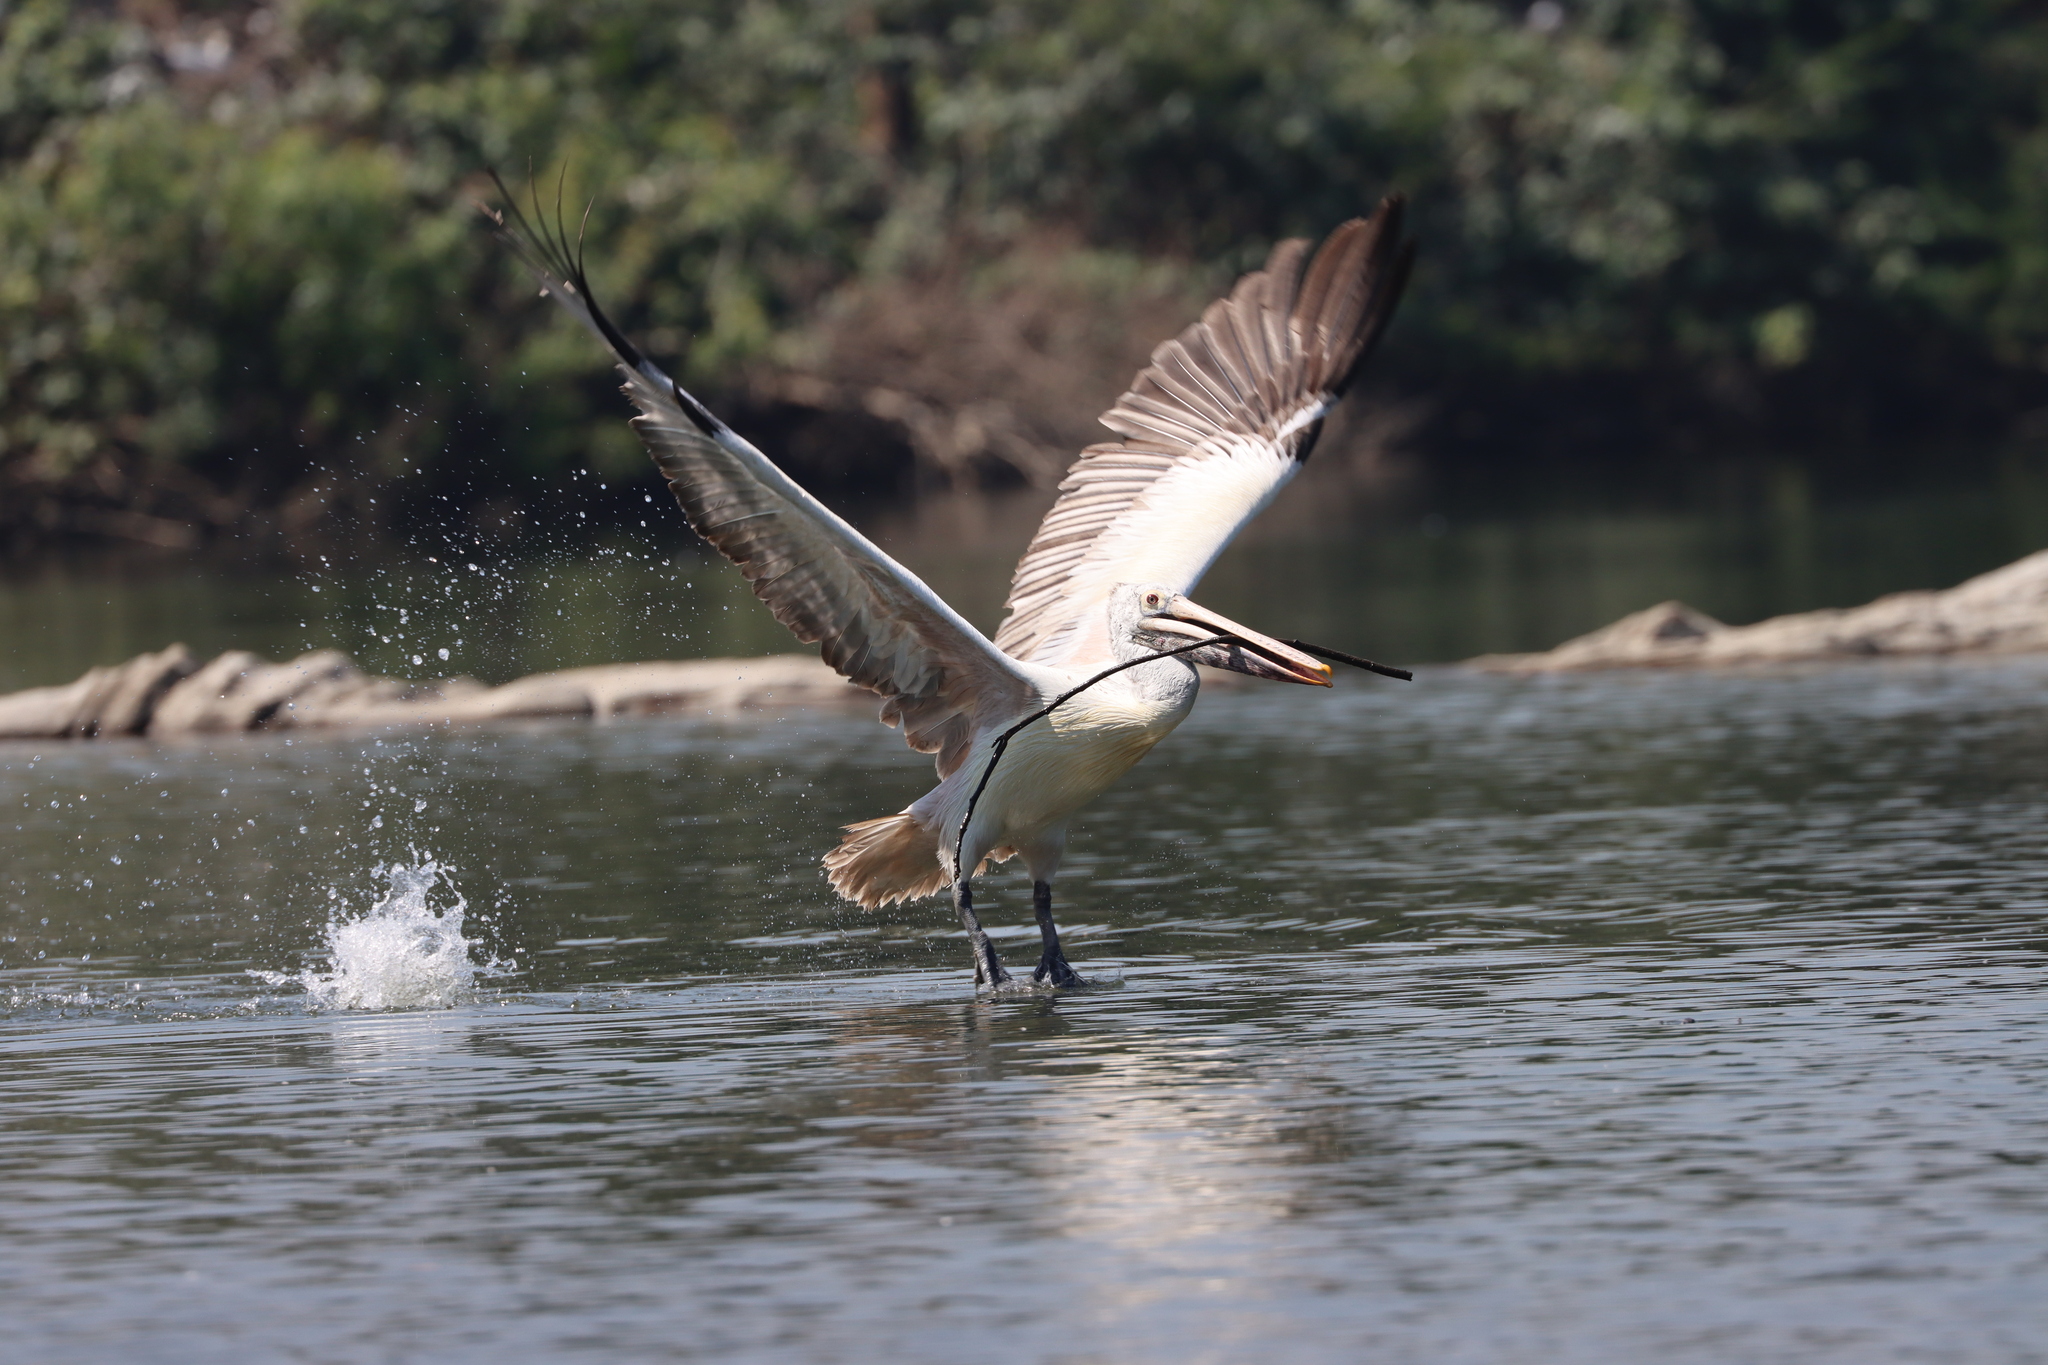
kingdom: Animalia
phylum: Chordata
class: Aves
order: Pelecaniformes
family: Pelecanidae
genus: Pelecanus
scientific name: Pelecanus philippensis
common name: Spot-billed pelican
